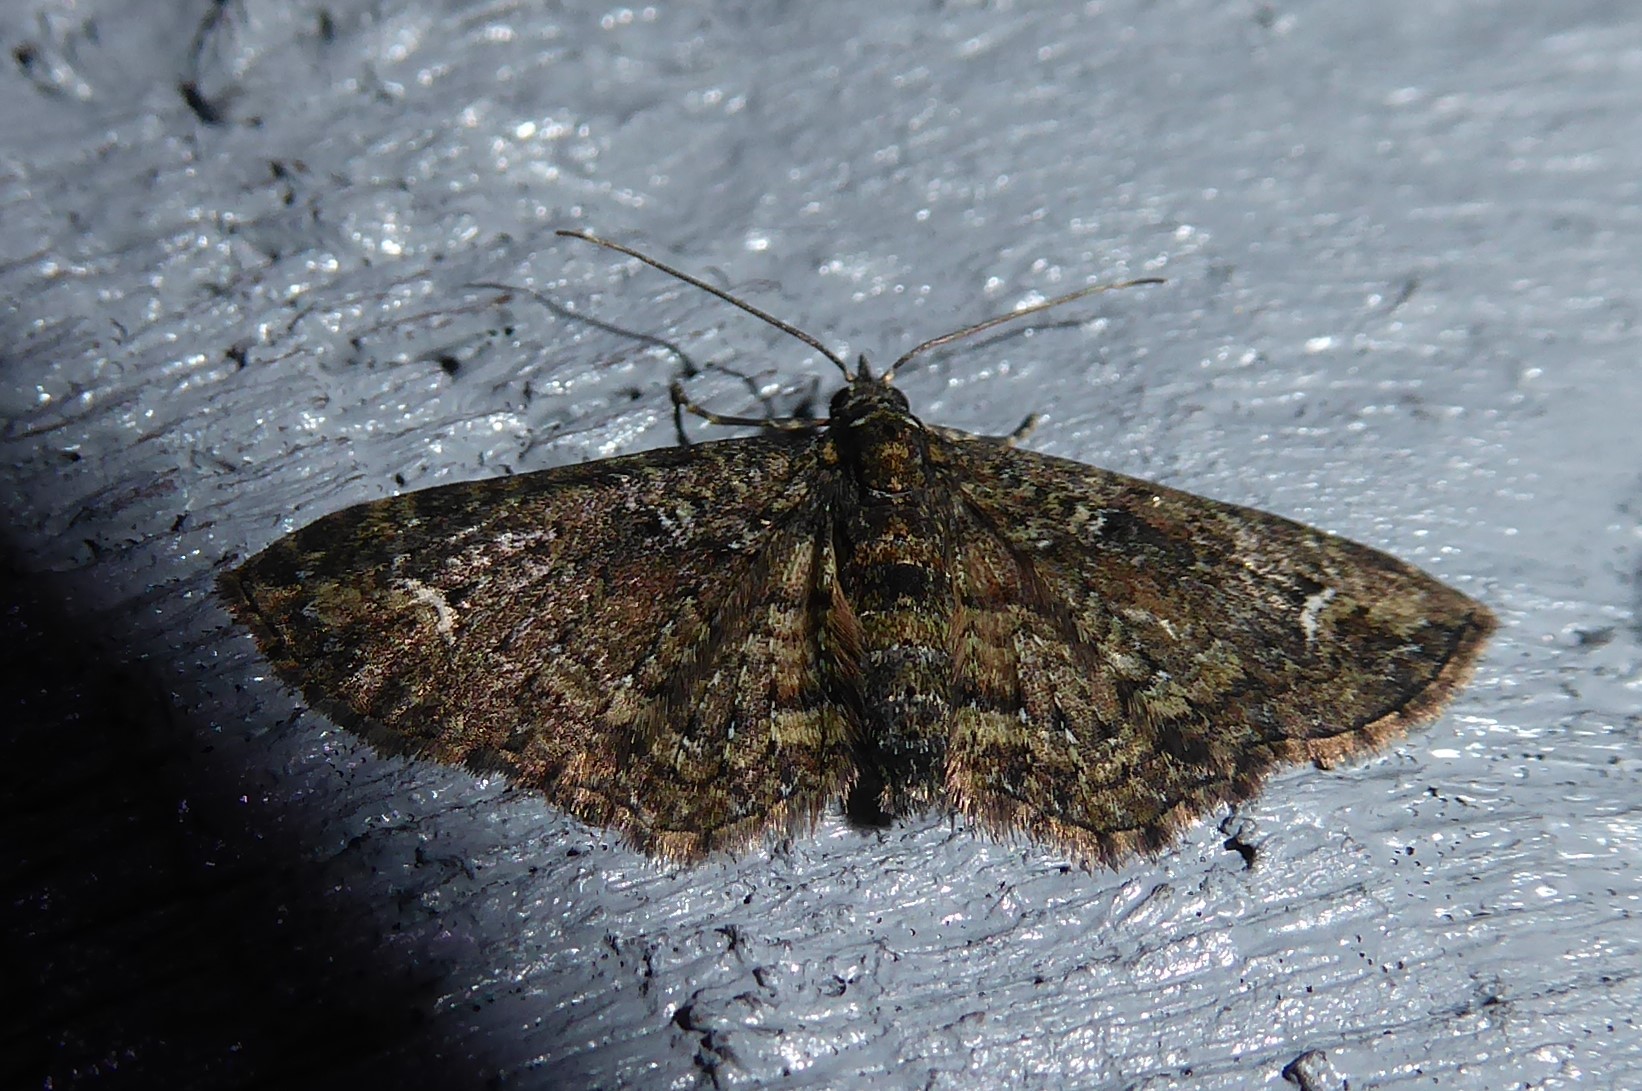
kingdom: Animalia
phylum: Arthropoda
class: Insecta
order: Lepidoptera
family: Geometridae
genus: Pasiphilodes
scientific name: Pasiphilodes testulata
